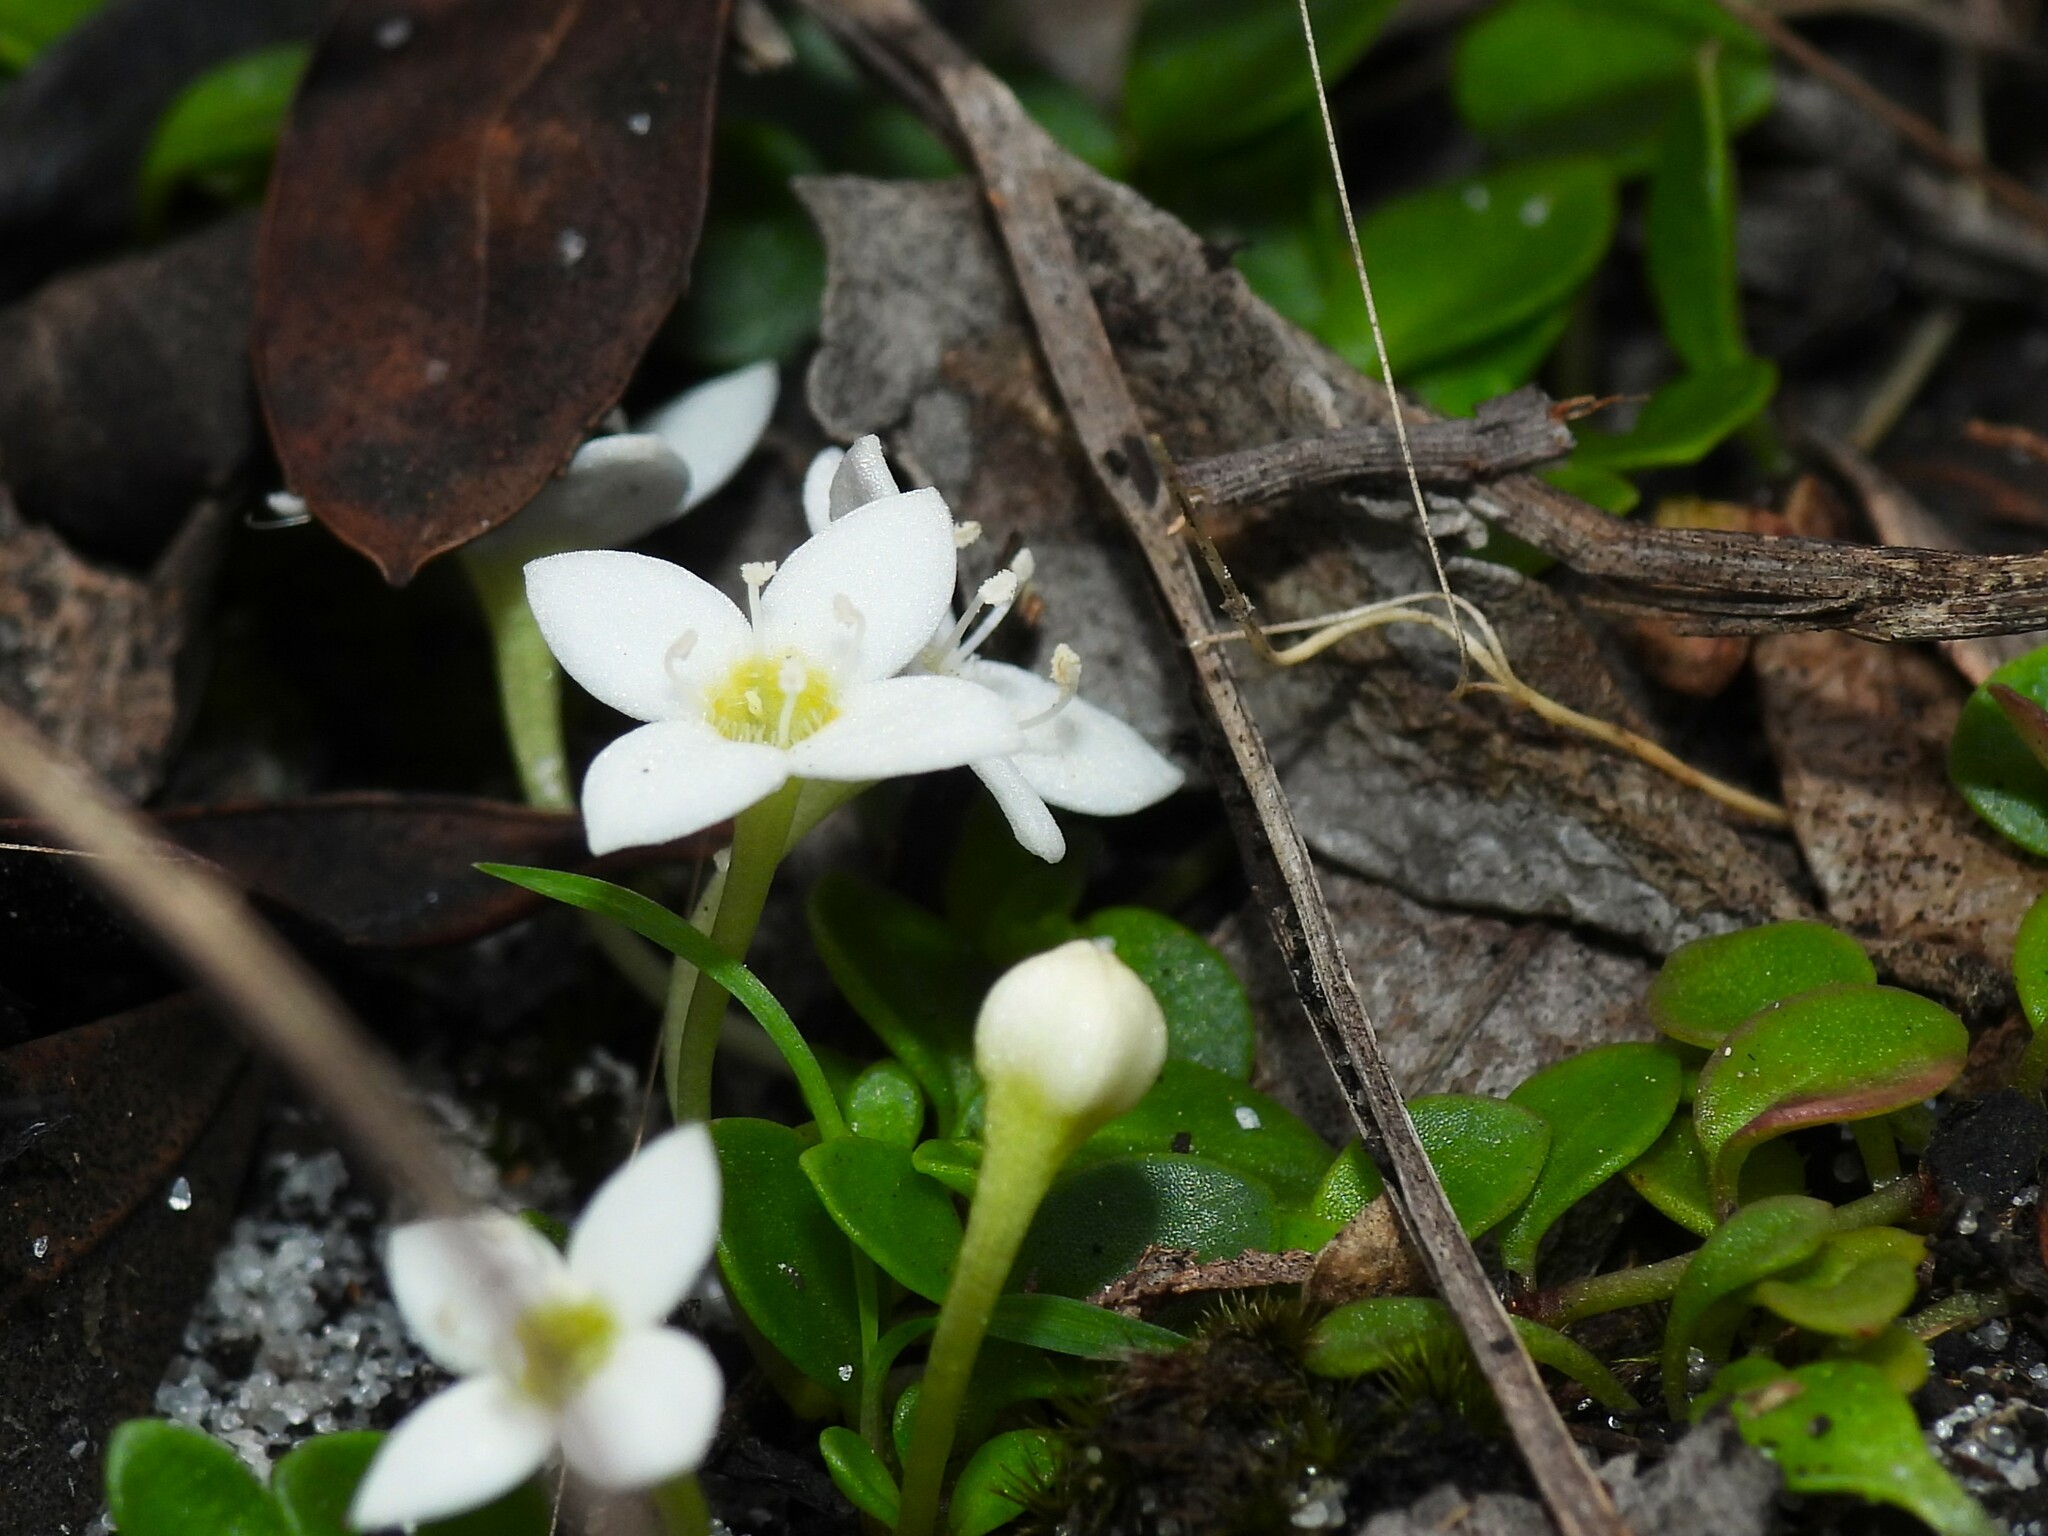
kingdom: Plantae
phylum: Tracheophyta
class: Magnoliopsida
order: Gentianales
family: Rubiaceae
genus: Houstonia
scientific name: Houstonia procumbens
